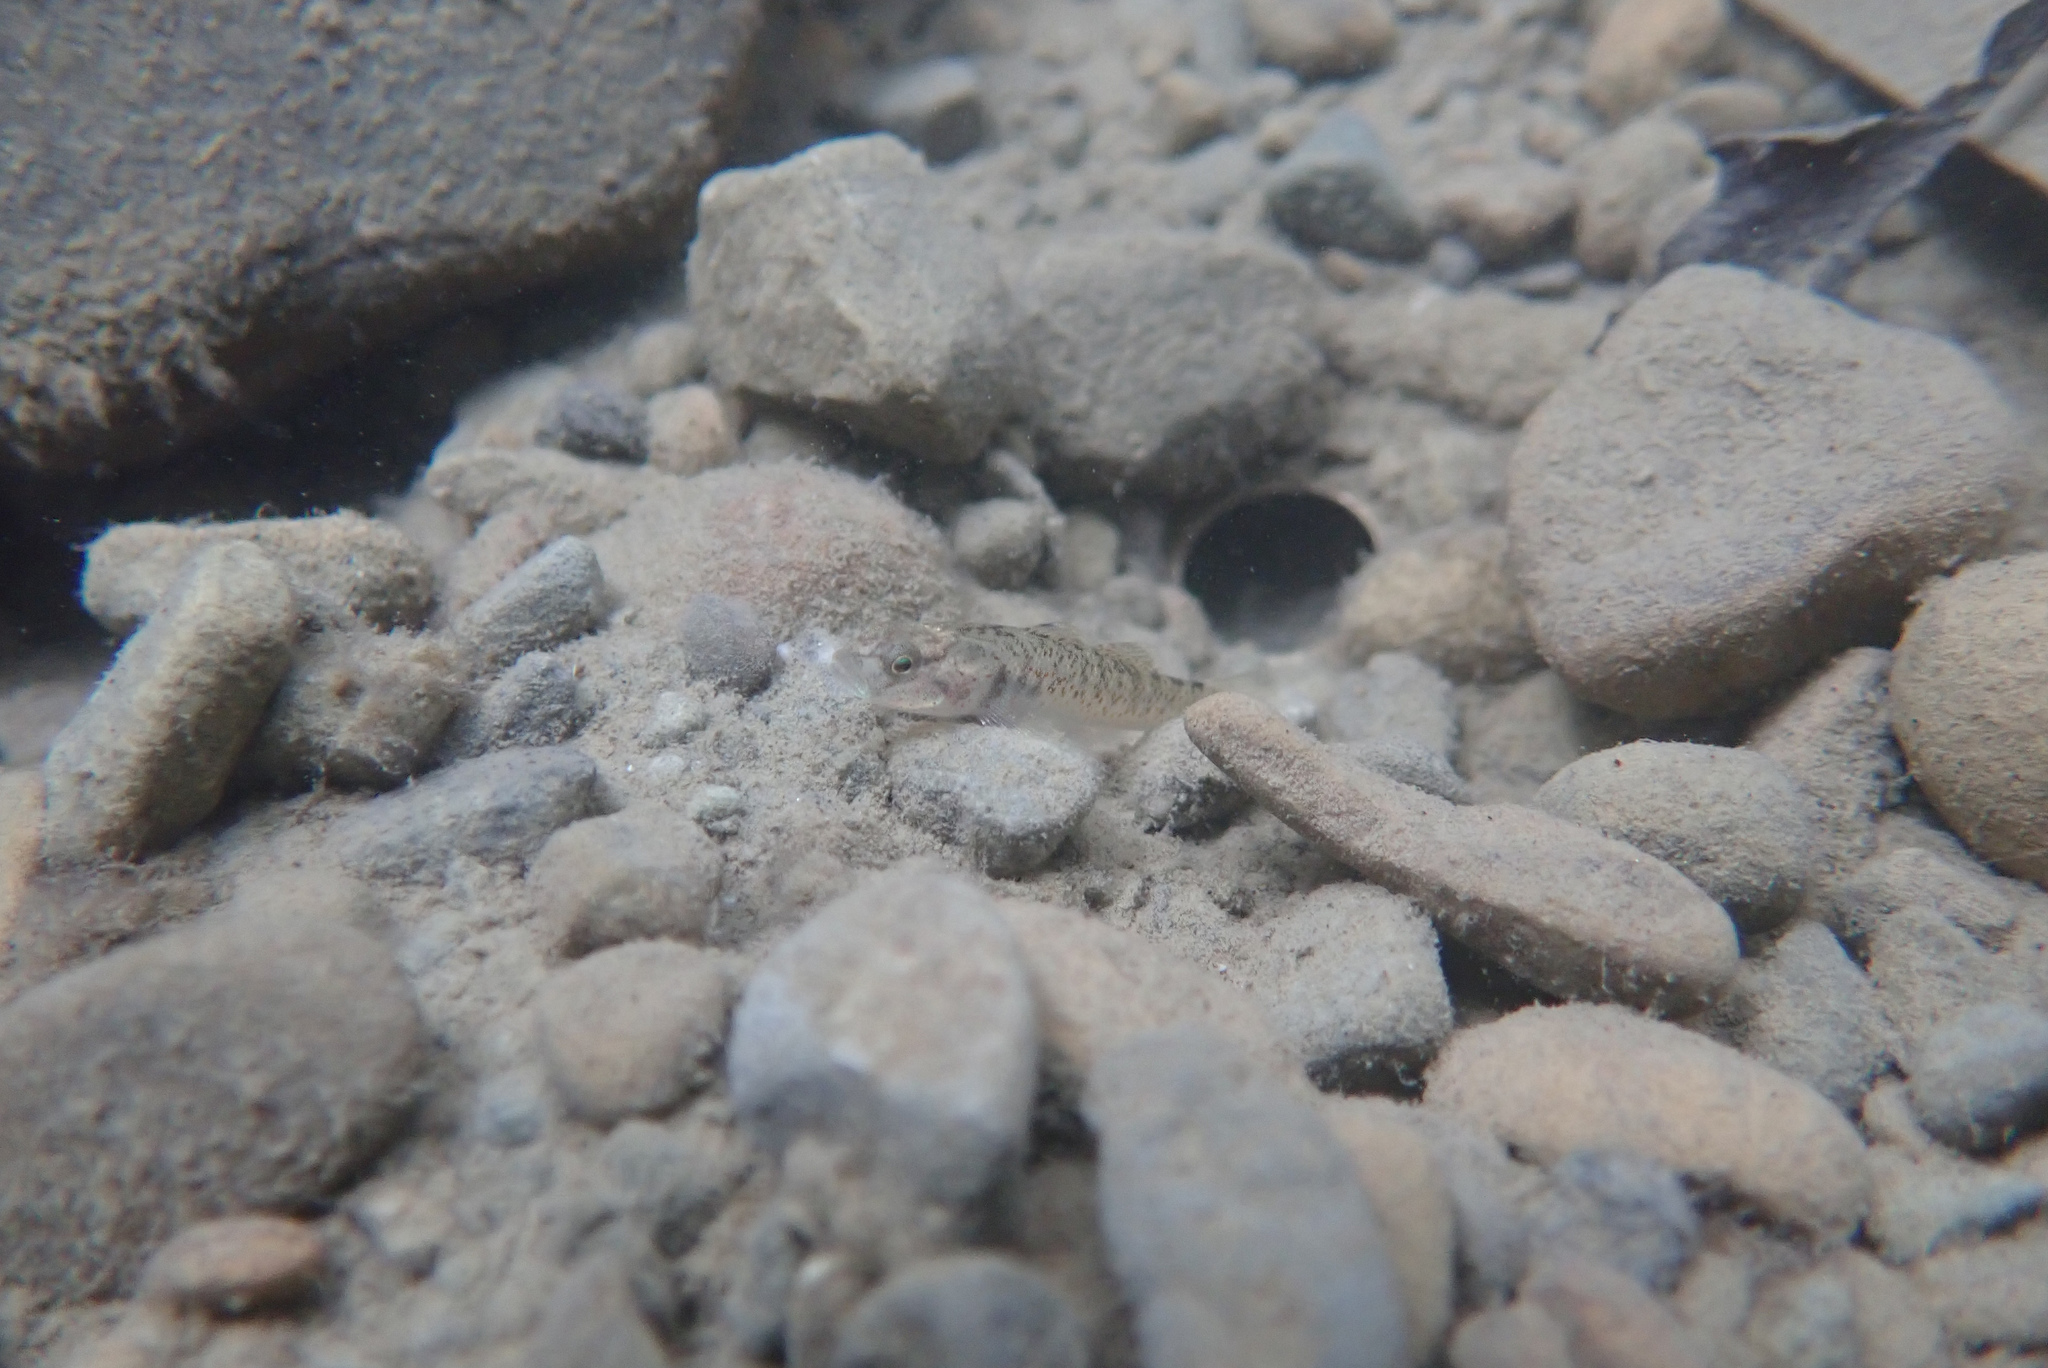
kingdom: Animalia
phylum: Chordata
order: Perciformes
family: Gobiidae
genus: Rhinogobius
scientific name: Rhinogobius rubromaculatus
